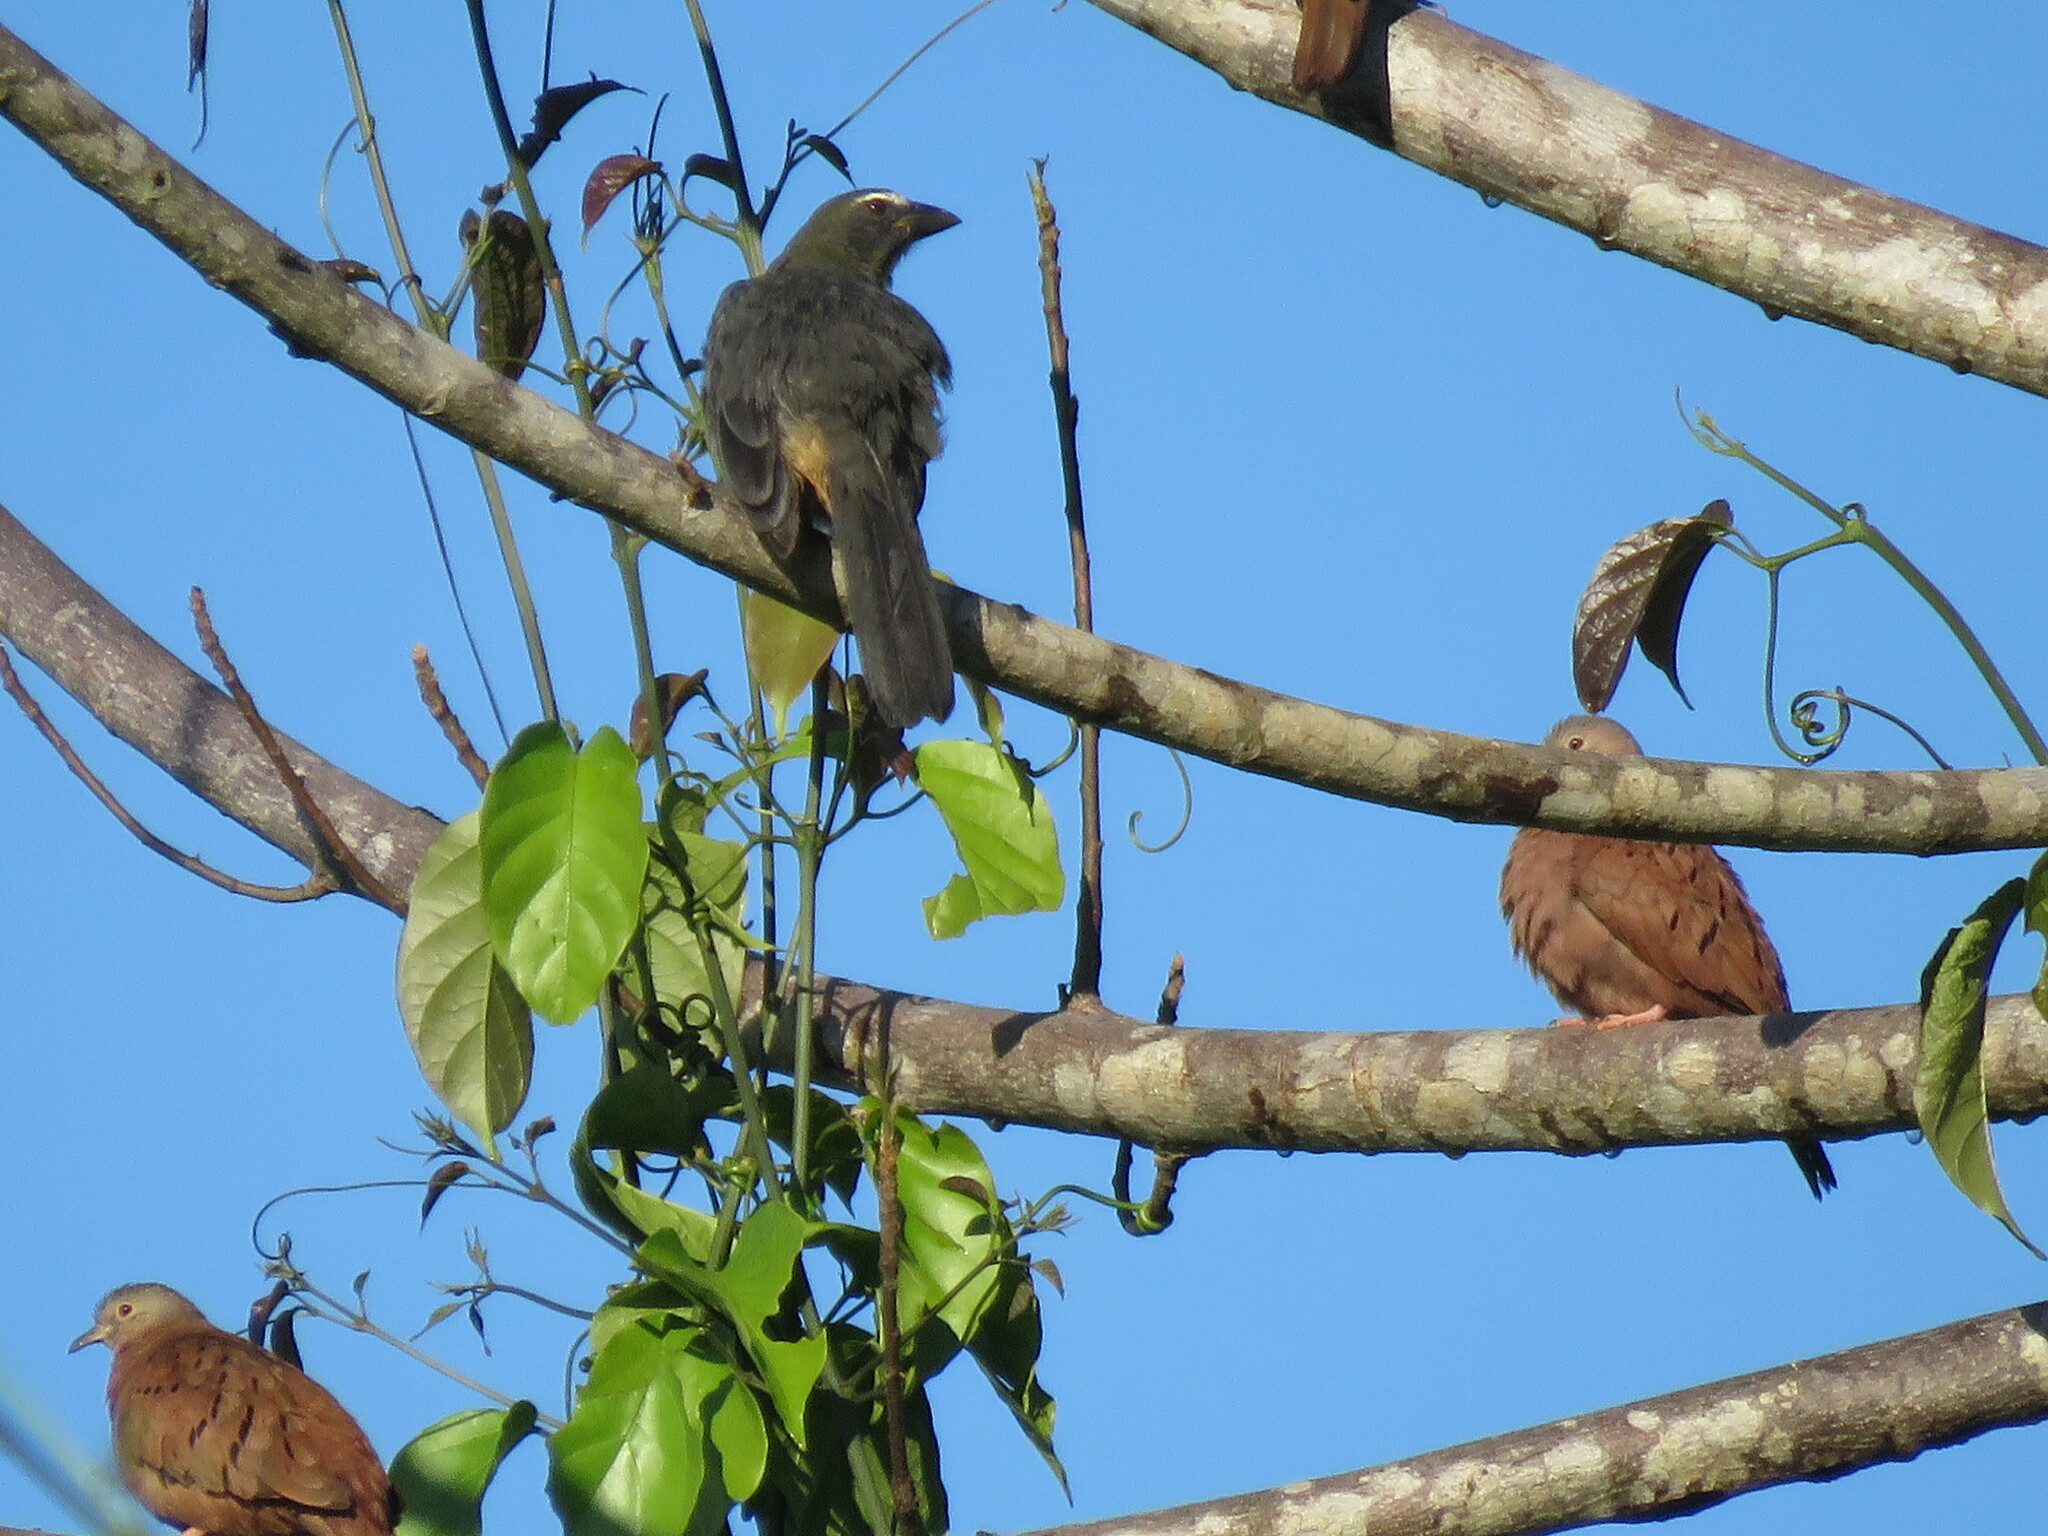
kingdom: Animalia
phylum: Chordata
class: Aves
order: Passeriformes
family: Thraupidae
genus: Saltator
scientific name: Saltator coerulescens
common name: Grayish saltator
